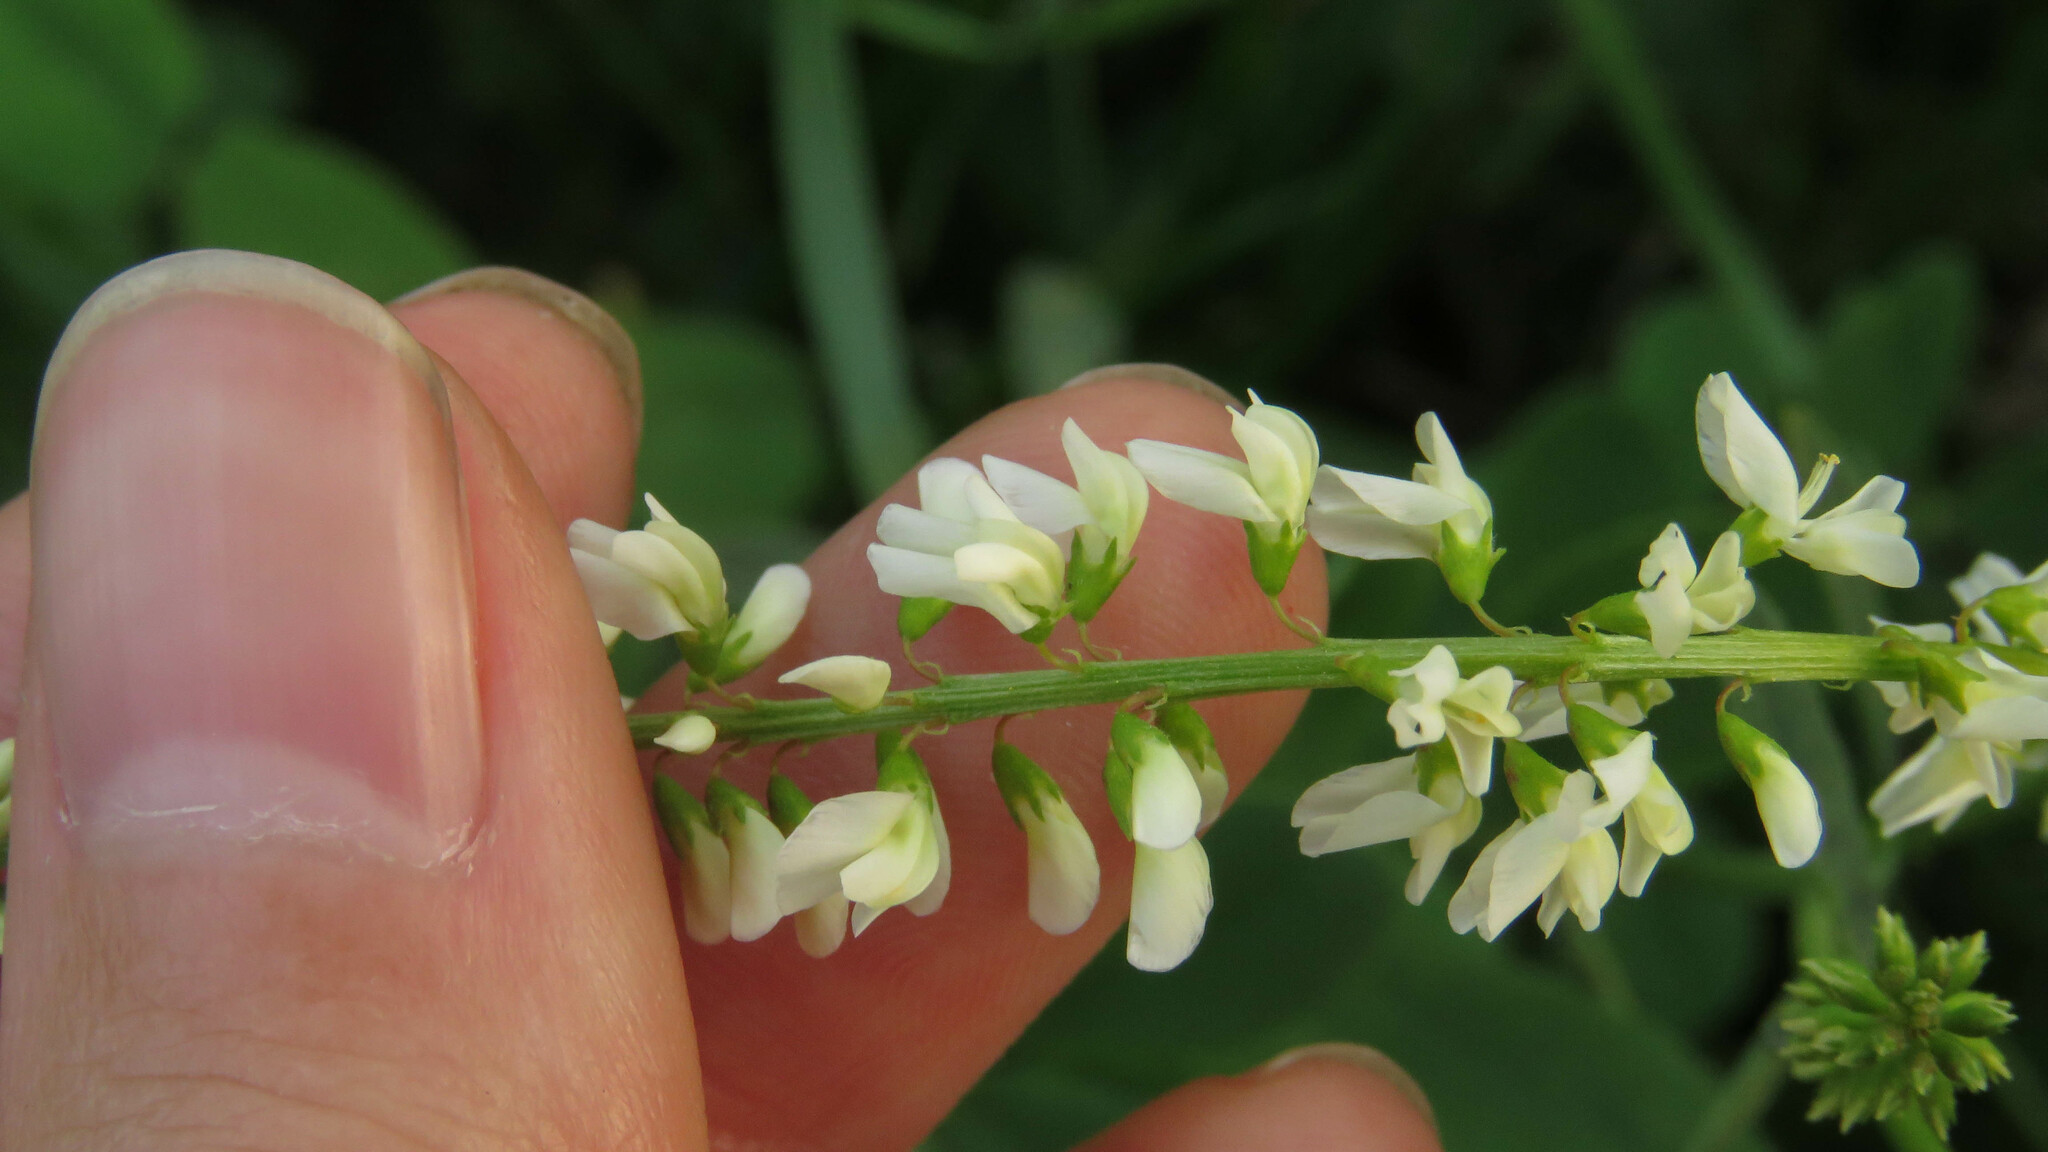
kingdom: Plantae
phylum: Tracheophyta
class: Magnoliopsida
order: Fabales
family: Fabaceae
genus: Melilotus
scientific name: Melilotus albus
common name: White melilot
